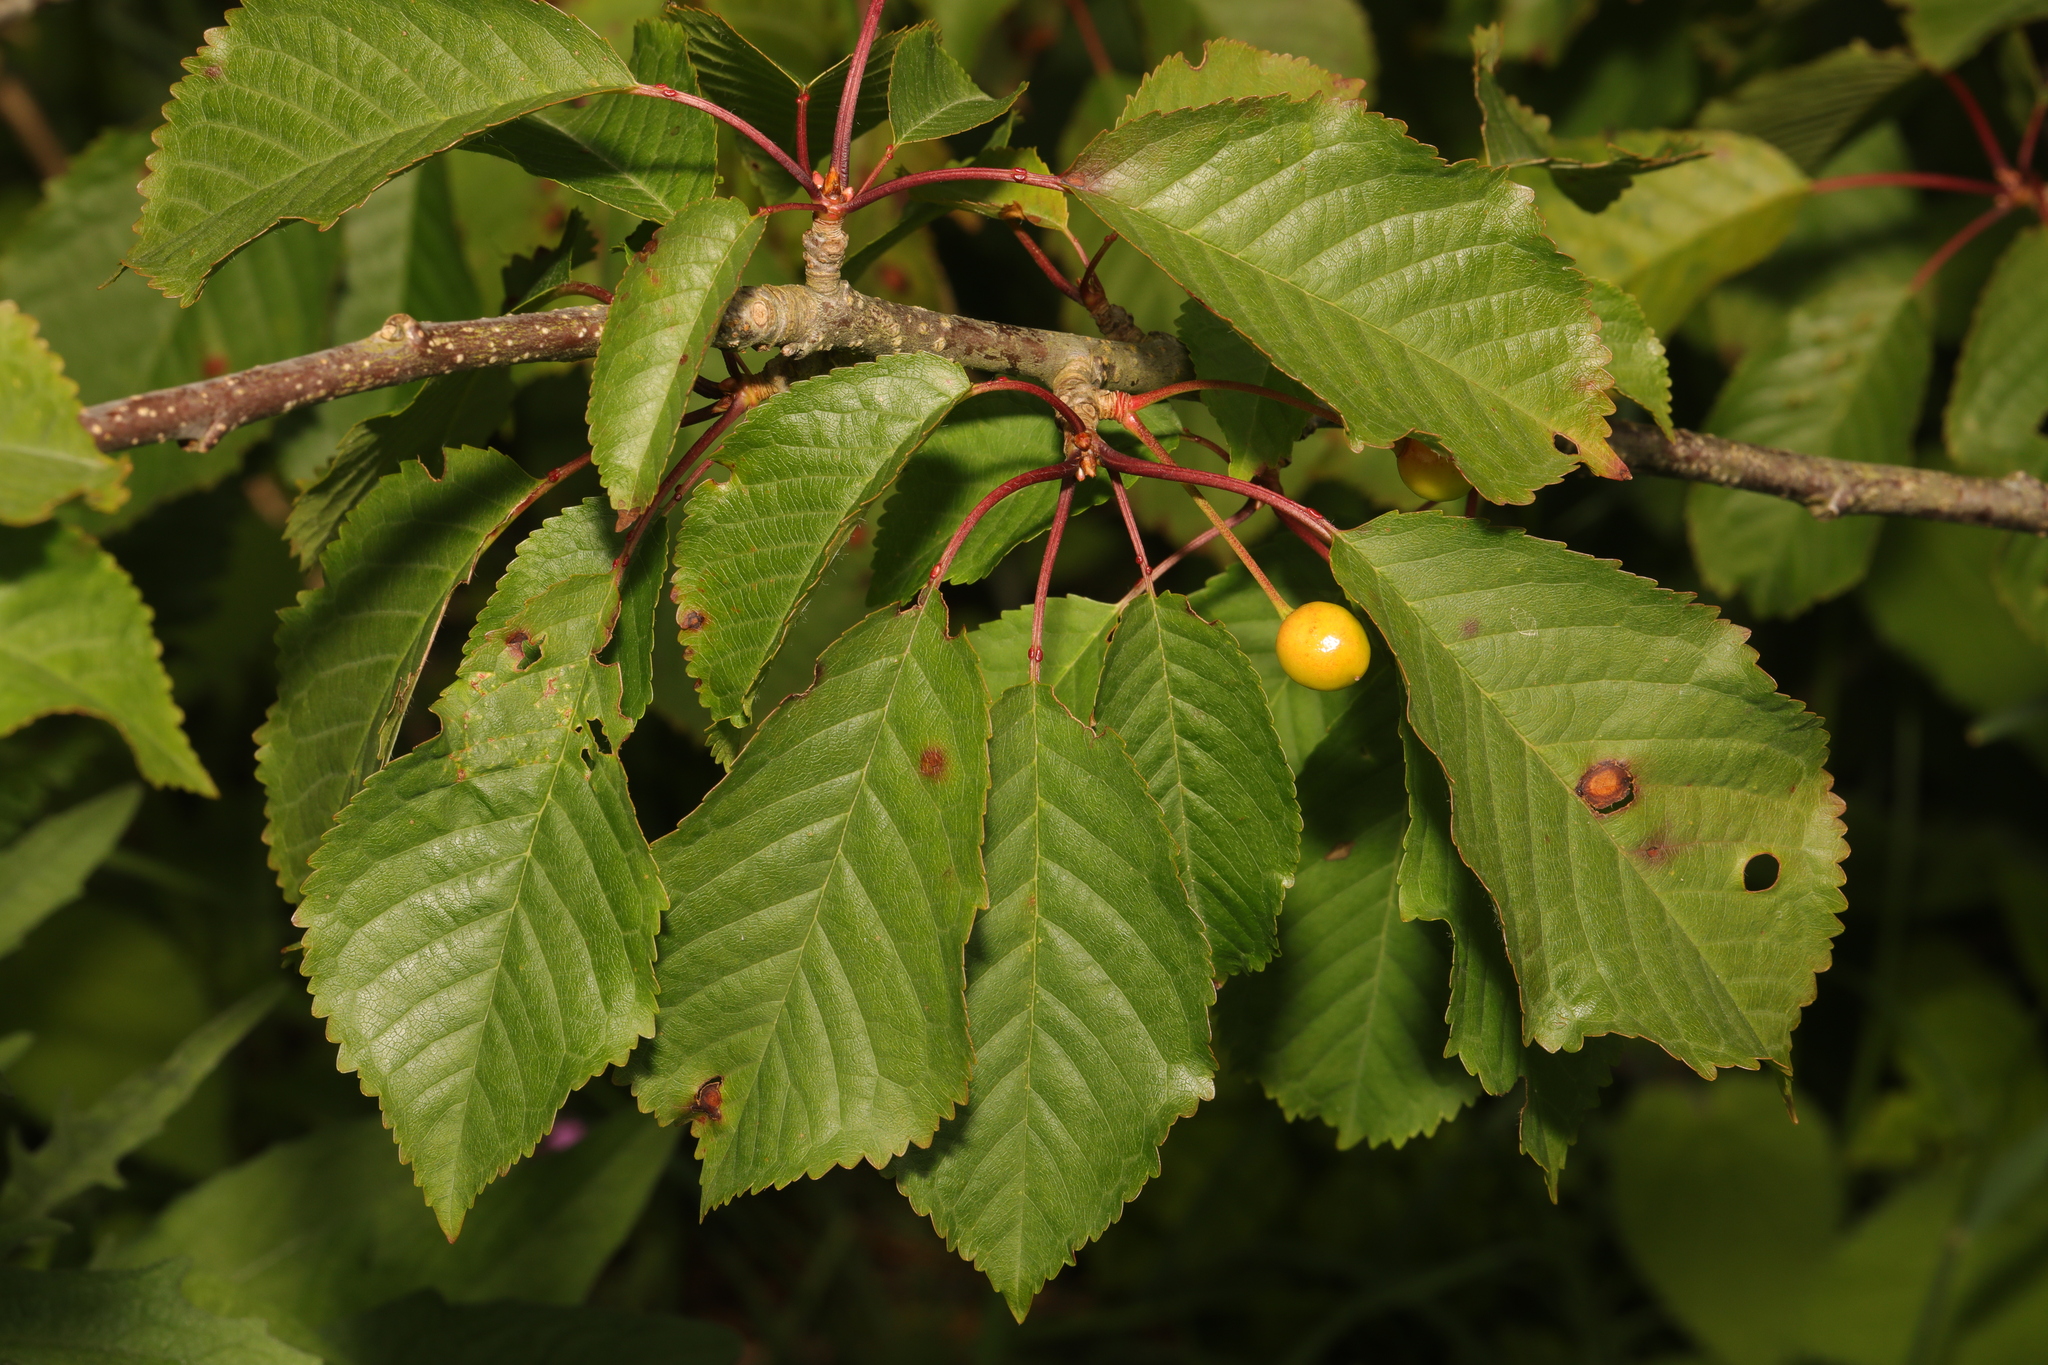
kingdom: Plantae
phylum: Tracheophyta
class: Magnoliopsida
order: Rosales
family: Rosaceae
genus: Prunus
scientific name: Prunus avium
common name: Sweet cherry
